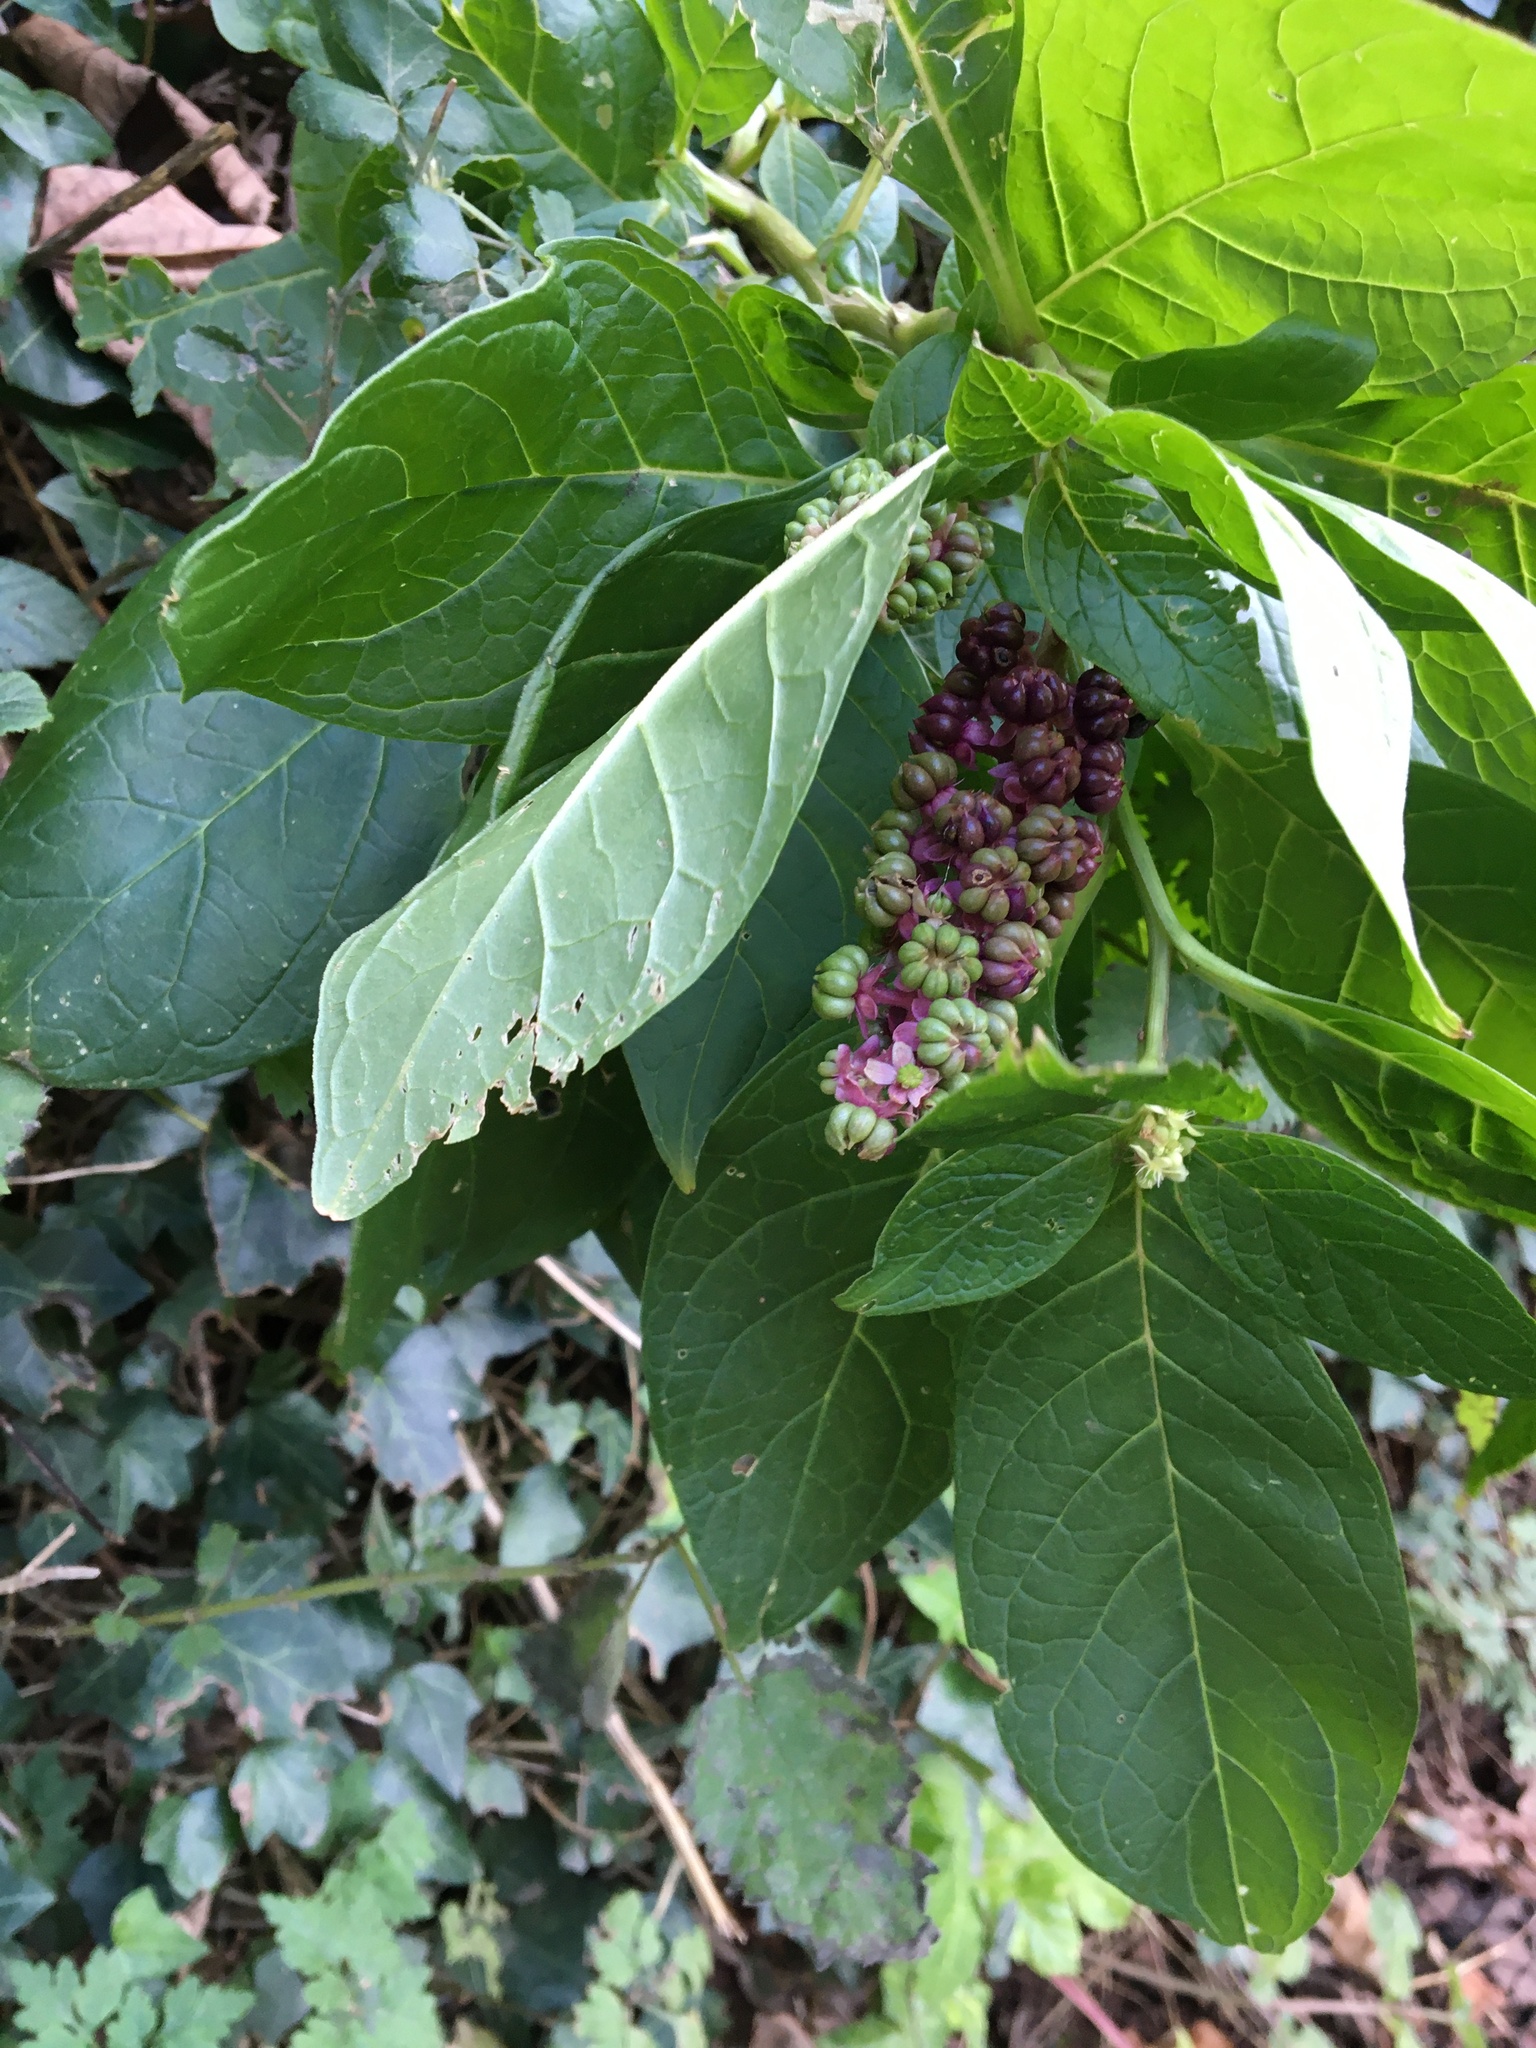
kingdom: Plantae
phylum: Tracheophyta
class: Magnoliopsida
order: Caryophyllales
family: Phytolaccaceae
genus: Phytolacca
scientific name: Phytolacca acinosa
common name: Indian pokeweed
